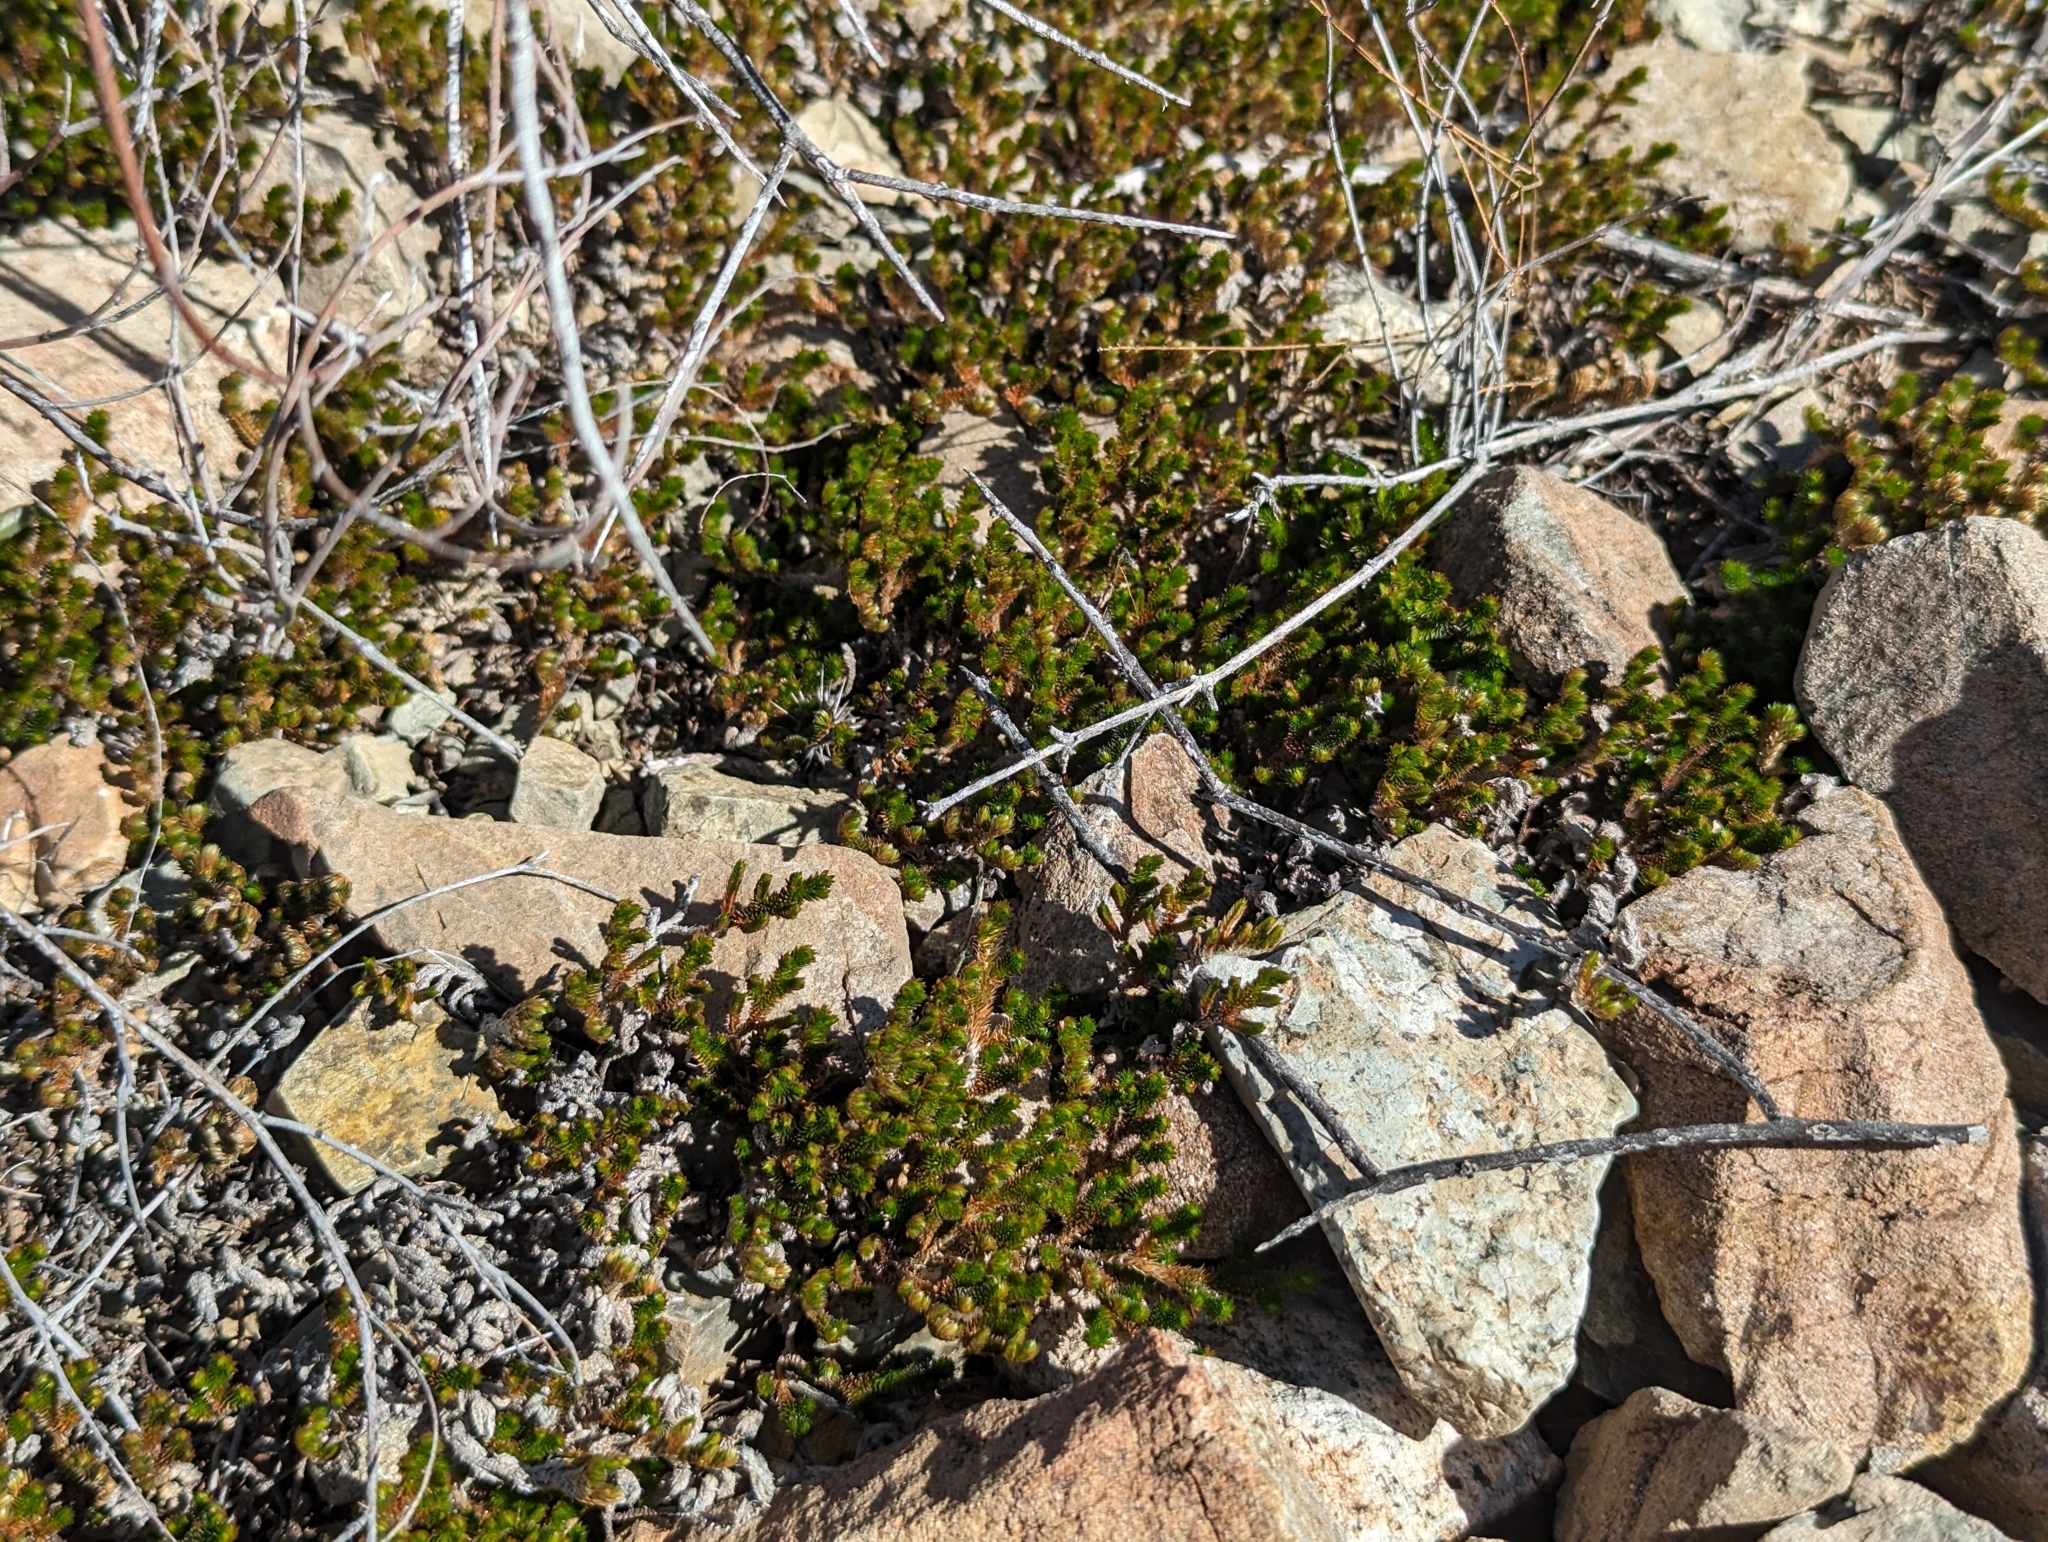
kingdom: Plantae
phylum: Tracheophyta
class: Lycopodiopsida
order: Selaginellales
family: Selaginellaceae
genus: Selaginella
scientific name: Selaginella arizonica
